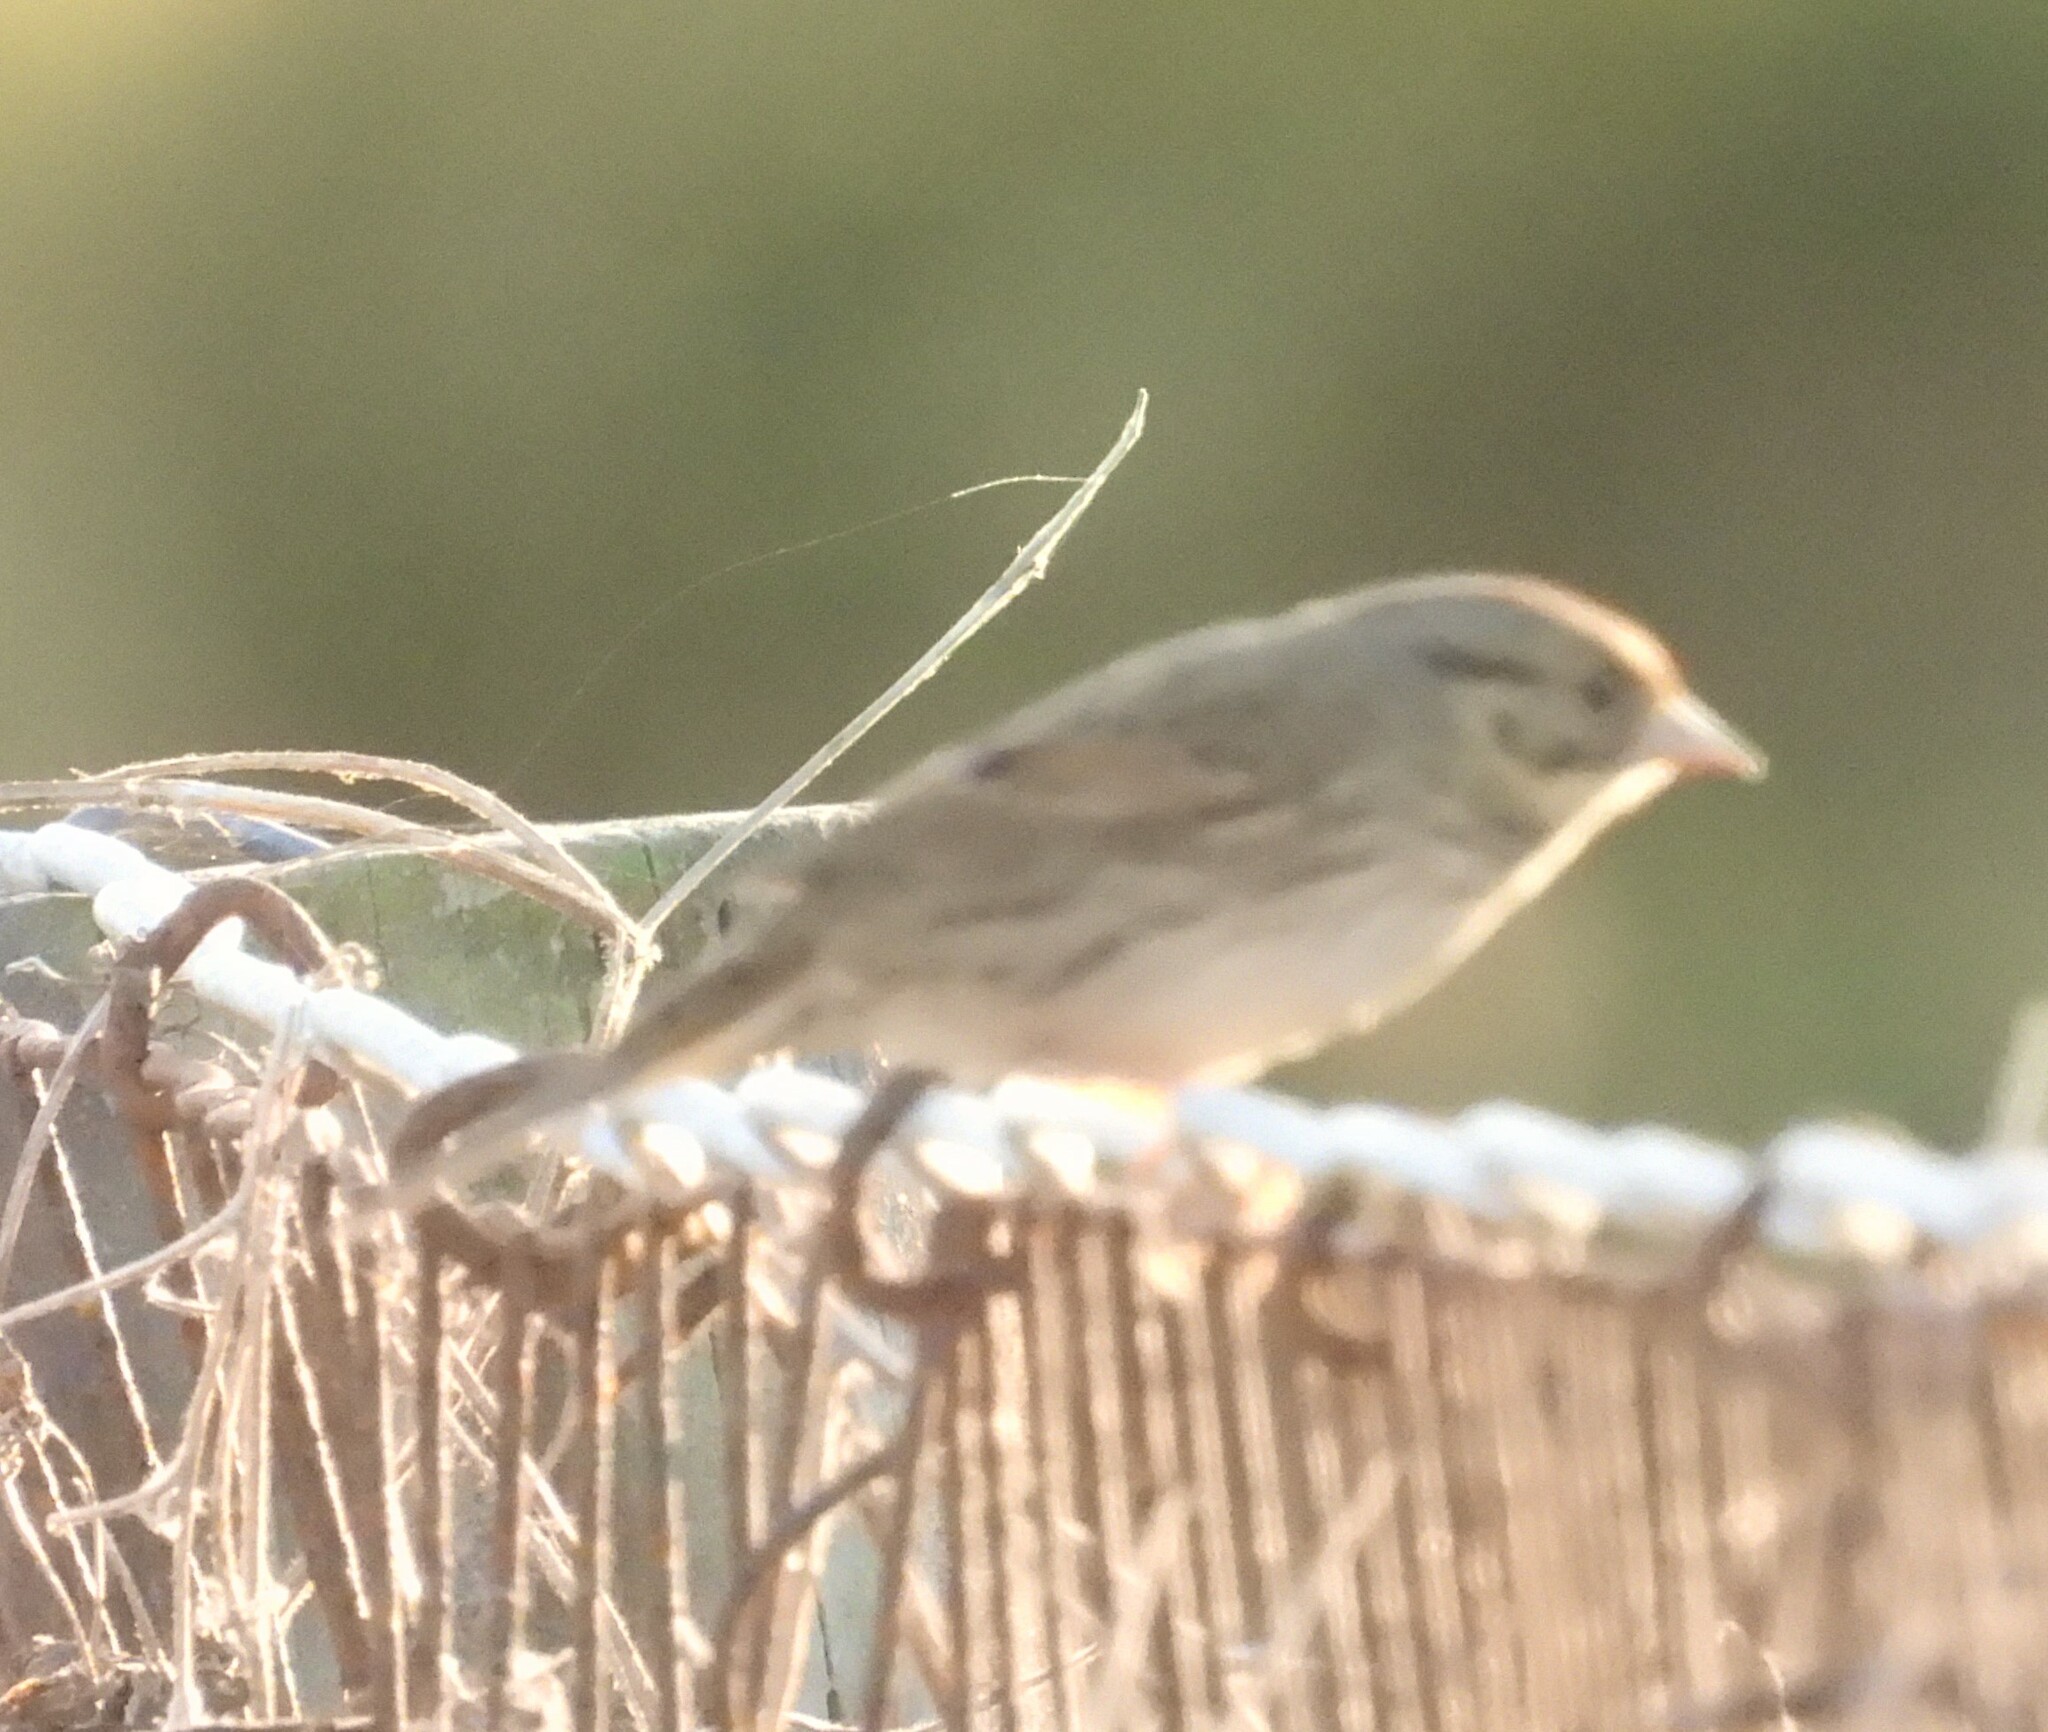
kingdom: Animalia
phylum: Chordata
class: Aves
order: Passeriformes
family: Passerellidae
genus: Melospiza
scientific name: Melospiza lincolnii
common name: Lincoln's sparrow
